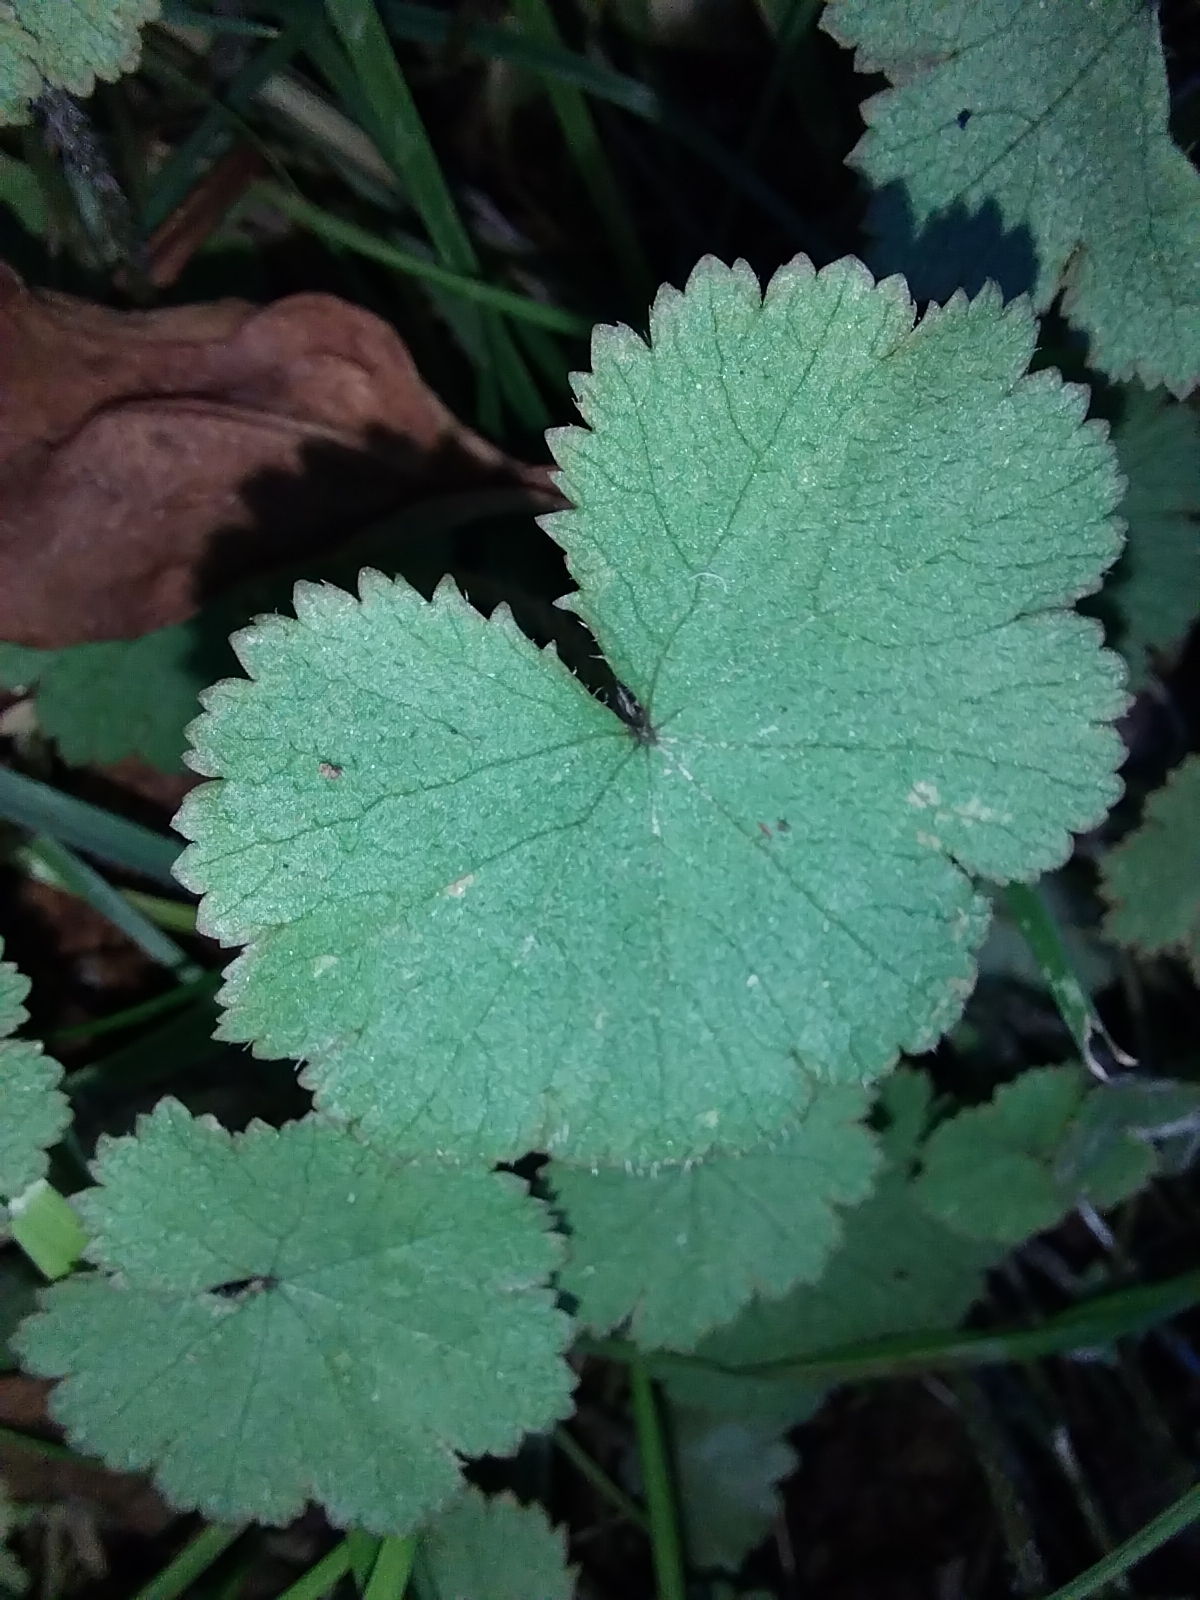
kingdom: Plantae
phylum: Tracheophyta
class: Magnoliopsida
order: Apiales
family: Araliaceae
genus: Hydrocotyle
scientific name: Hydrocotyle moschata
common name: Hairy pennywort
